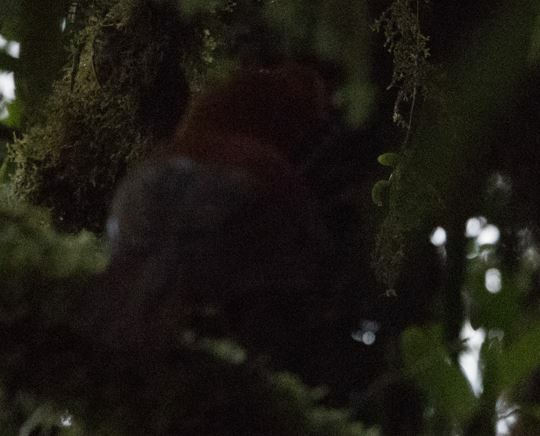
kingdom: Animalia
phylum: Chordata
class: Aves
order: Passeriformes
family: Cotingidae
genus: Rupicola
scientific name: Rupicola peruvianus
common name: Andean cock-of-the-rock
